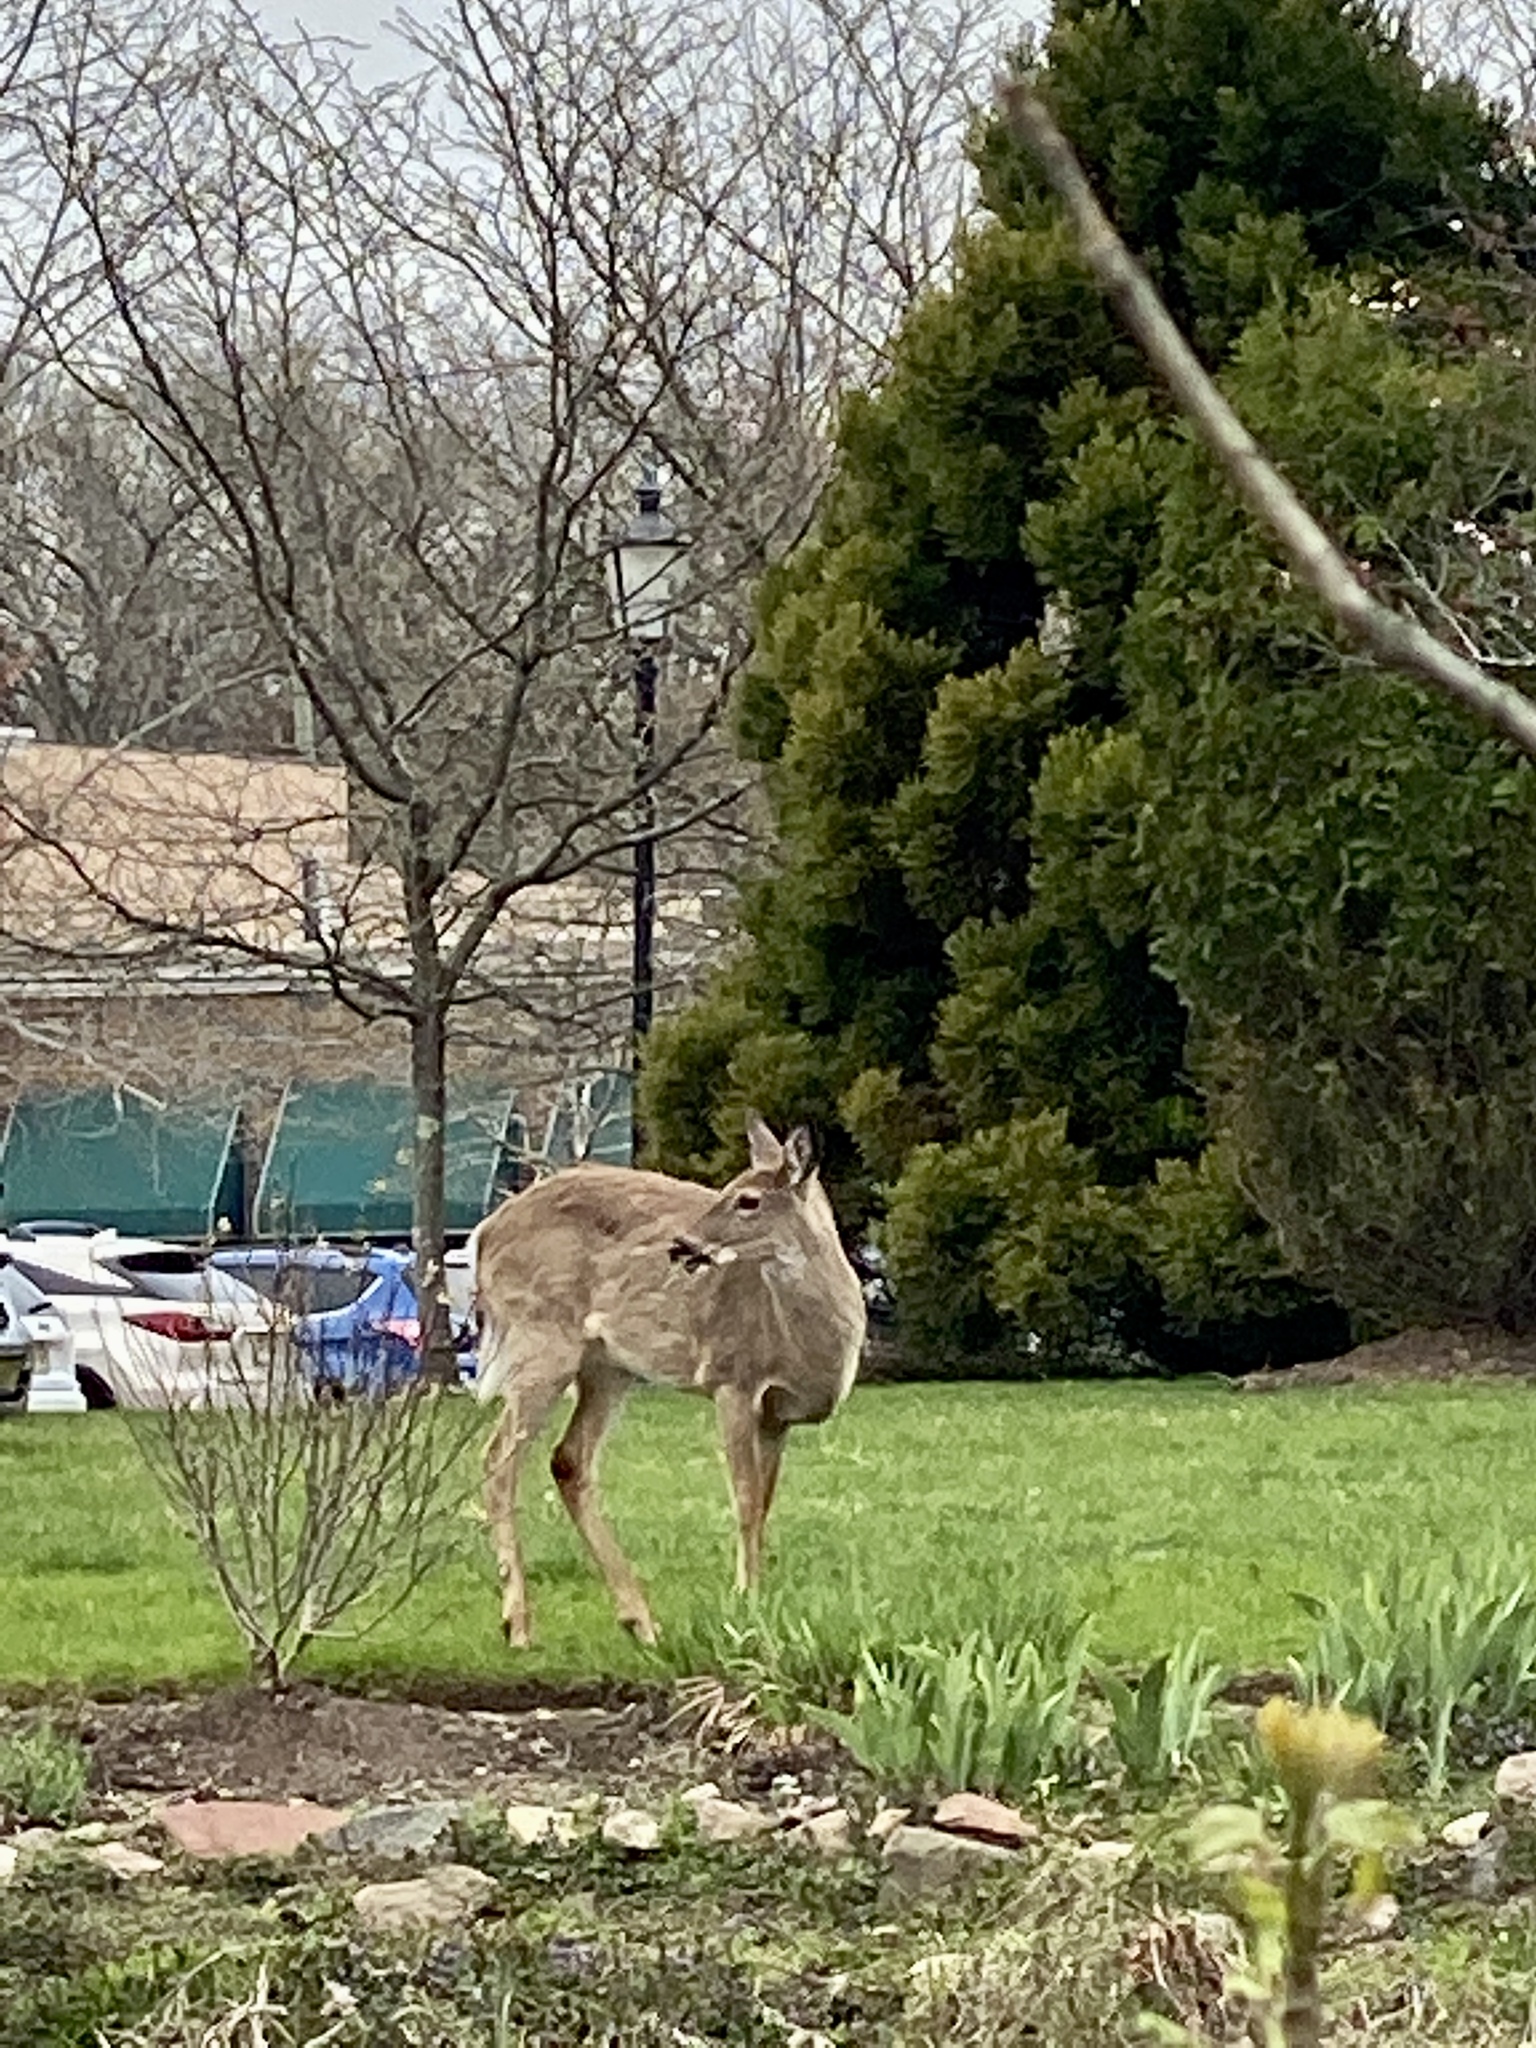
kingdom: Animalia
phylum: Chordata
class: Mammalia
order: Artiodactyla
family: Cervidae
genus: Odocoileus
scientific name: Odocoileus virginianus
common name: White-tailed deer
